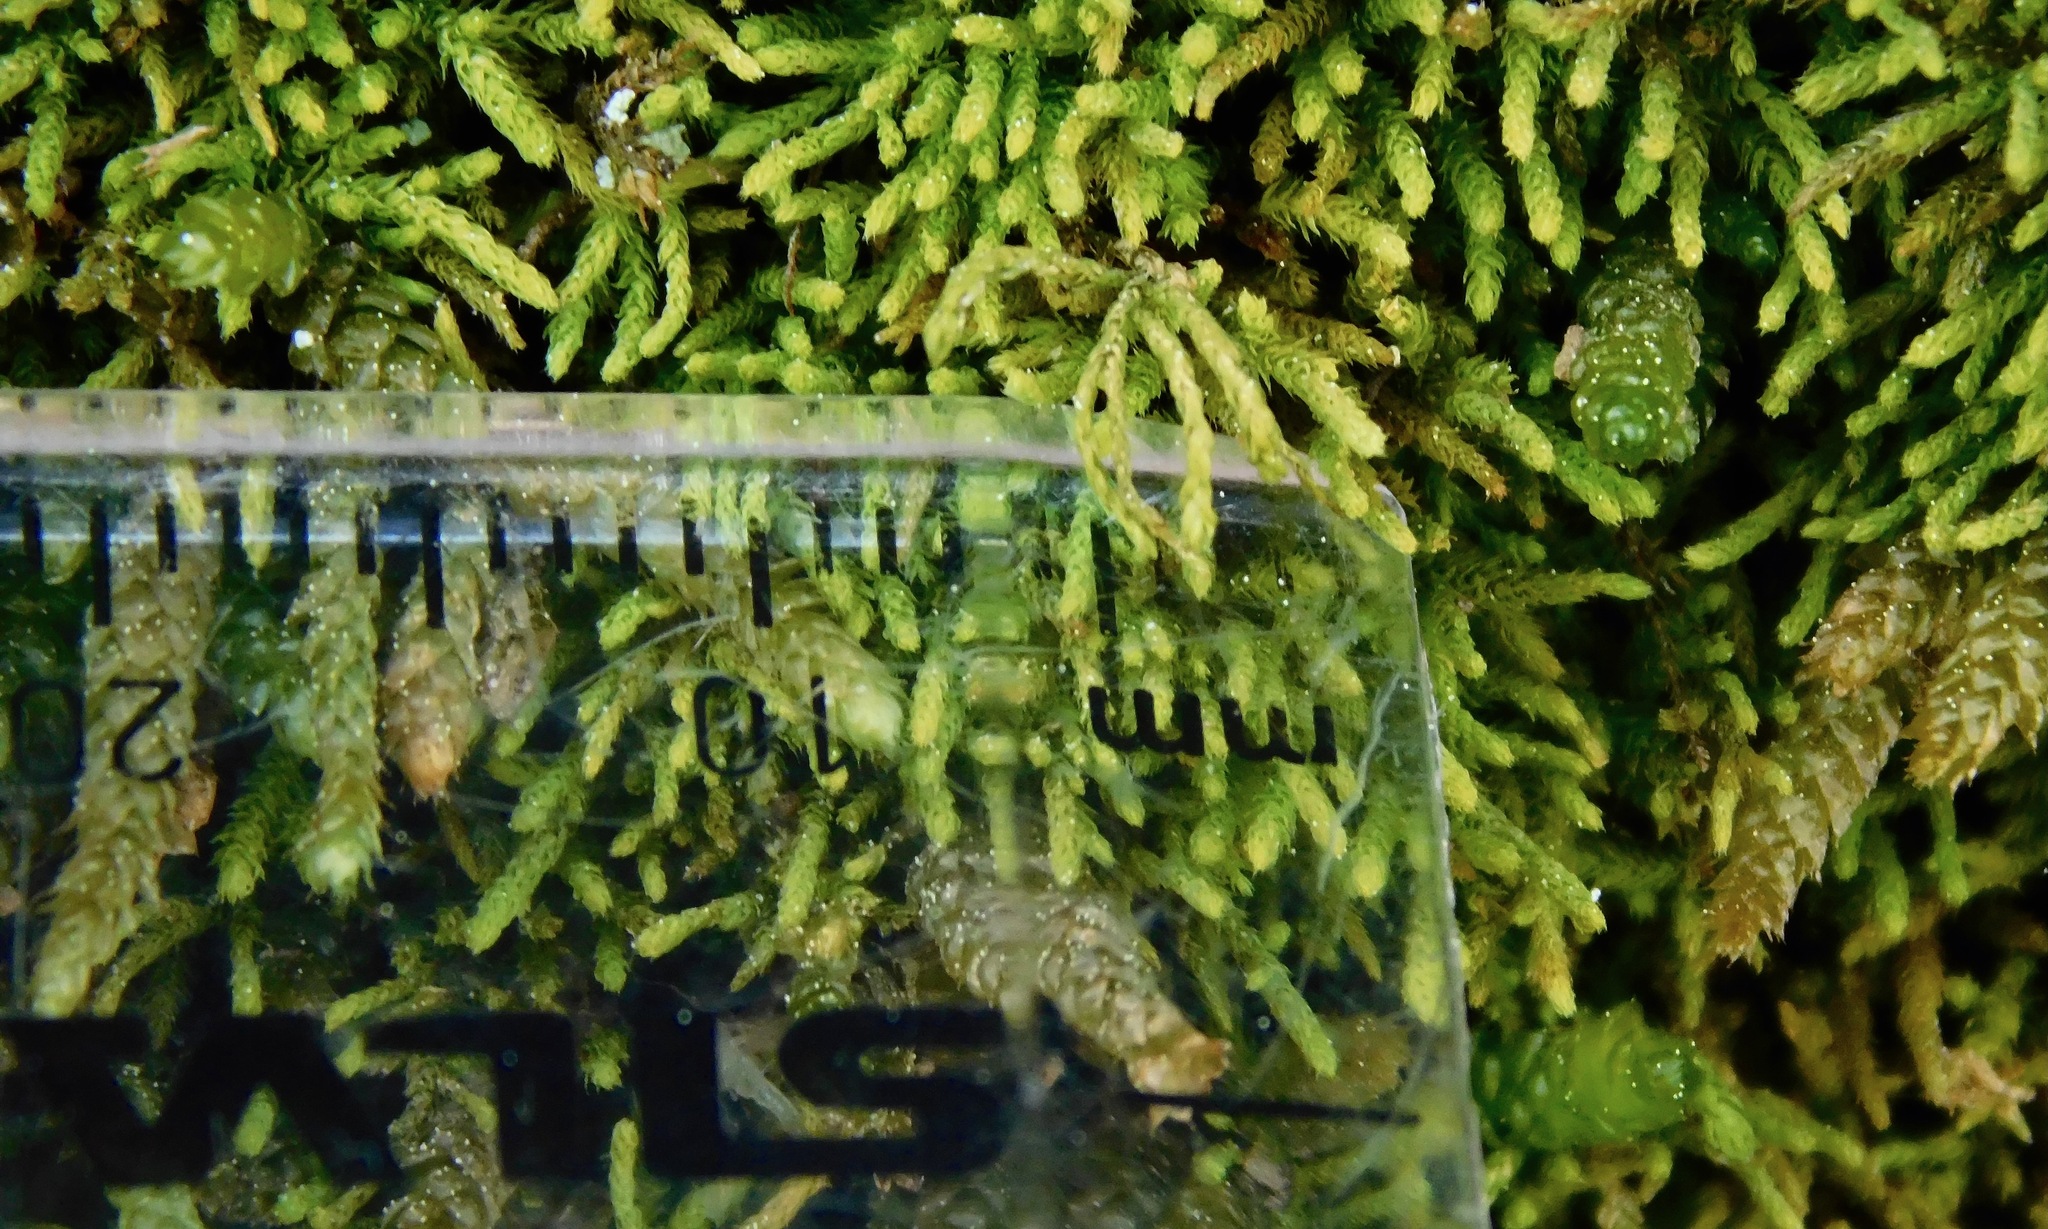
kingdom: Plantae
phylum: Bryophyta
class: Bryopsida
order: Hypnales
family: Brachytheciaceae
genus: Claopodium
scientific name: Claopodium rostratum
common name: Yellow yarn moss
